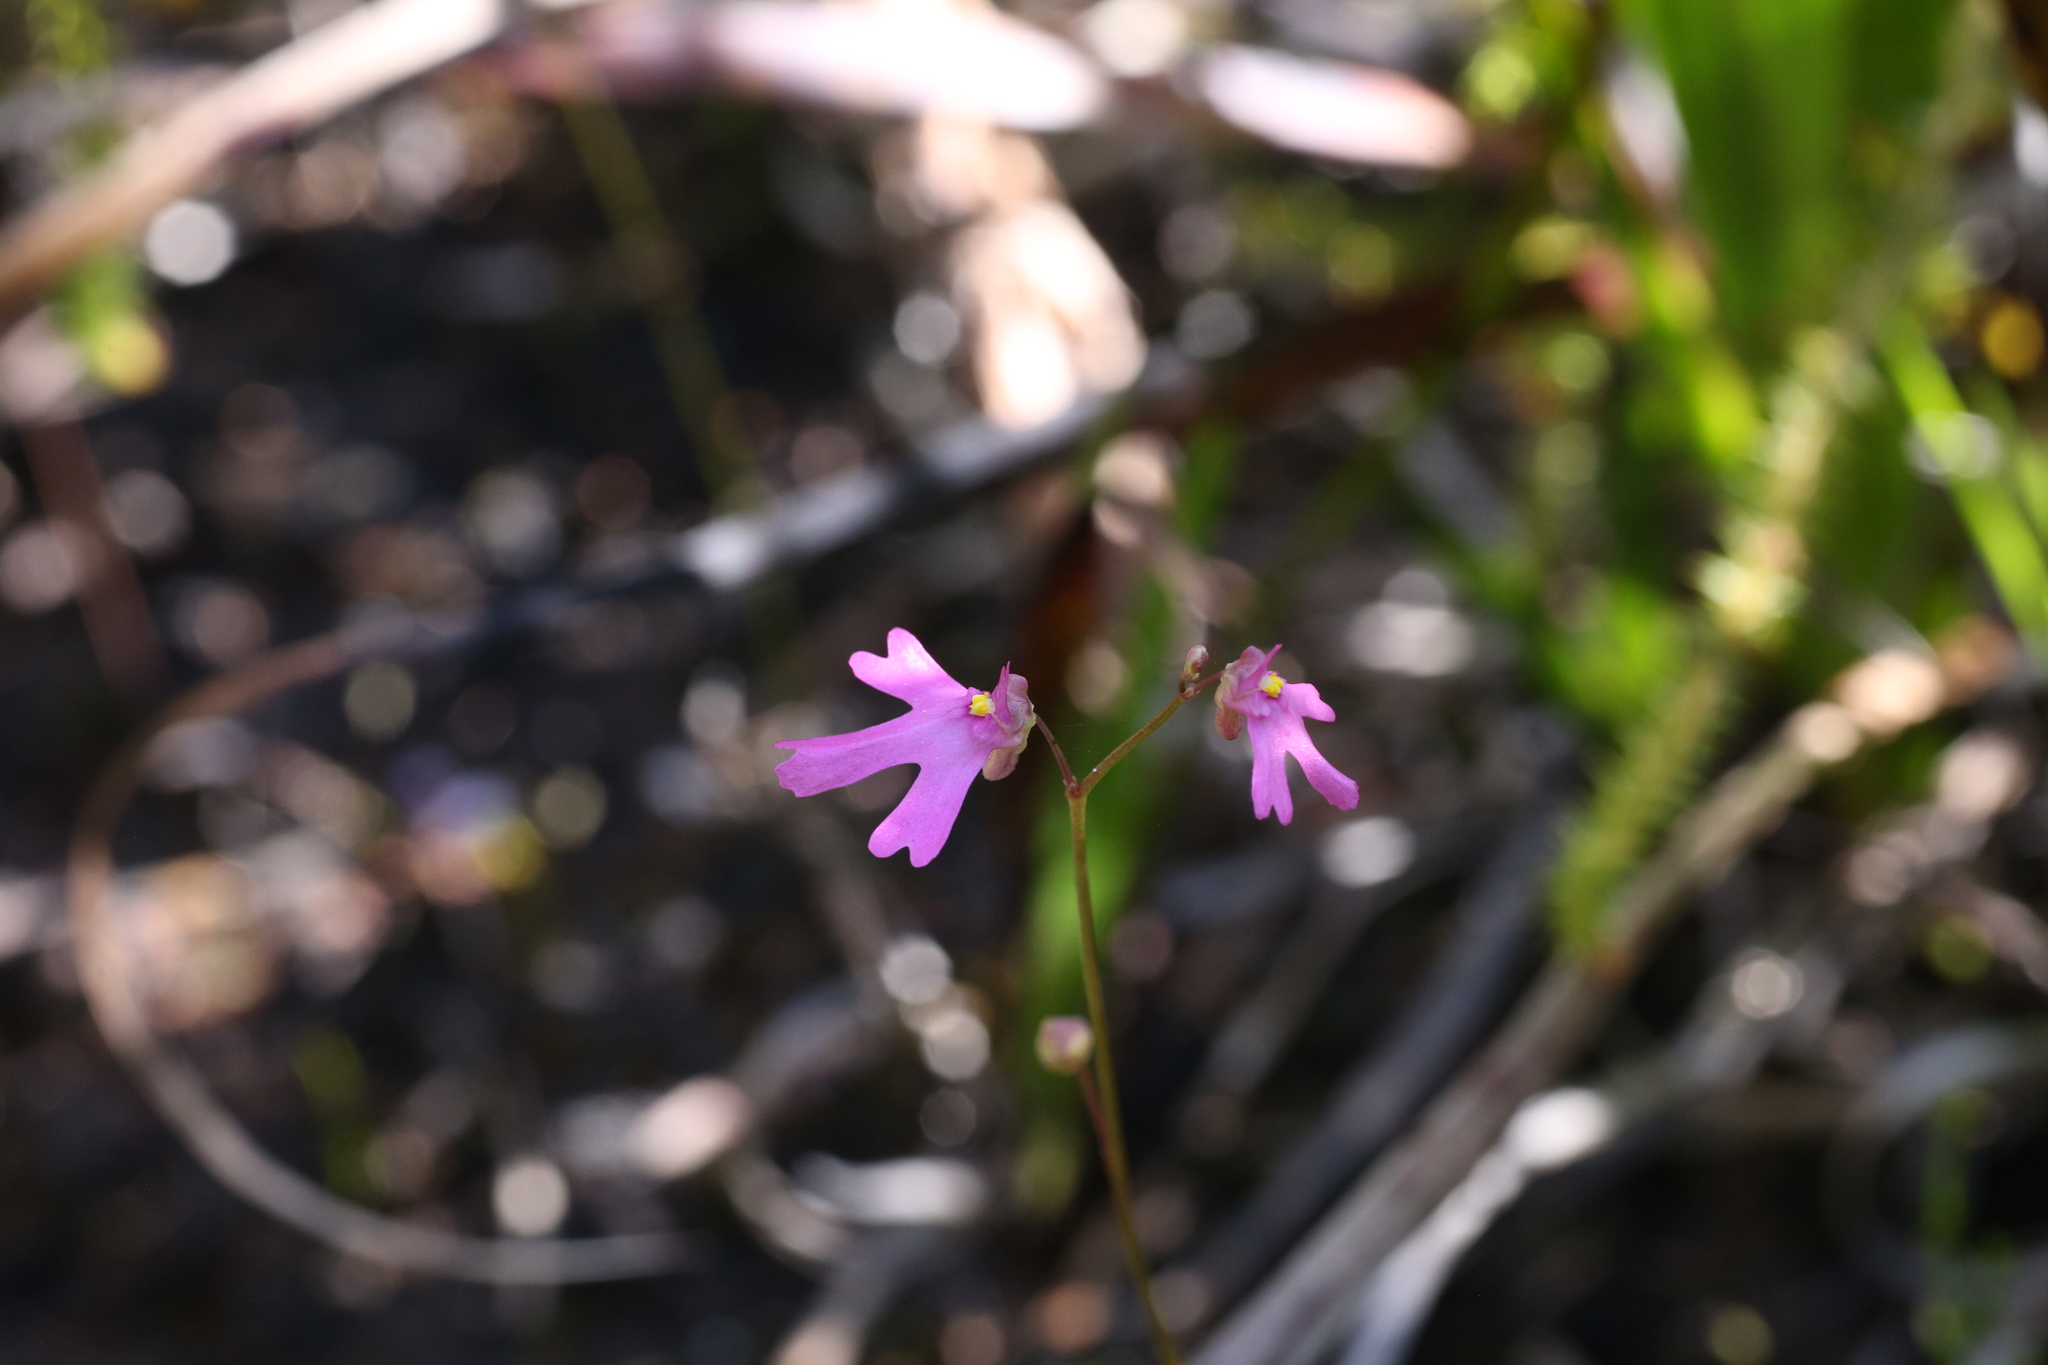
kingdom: Plantae
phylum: Tracheophyta
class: Magnoliopsida
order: Lamiales
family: Lentibulariaceae
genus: Utricularia
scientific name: Utricularia multifida
